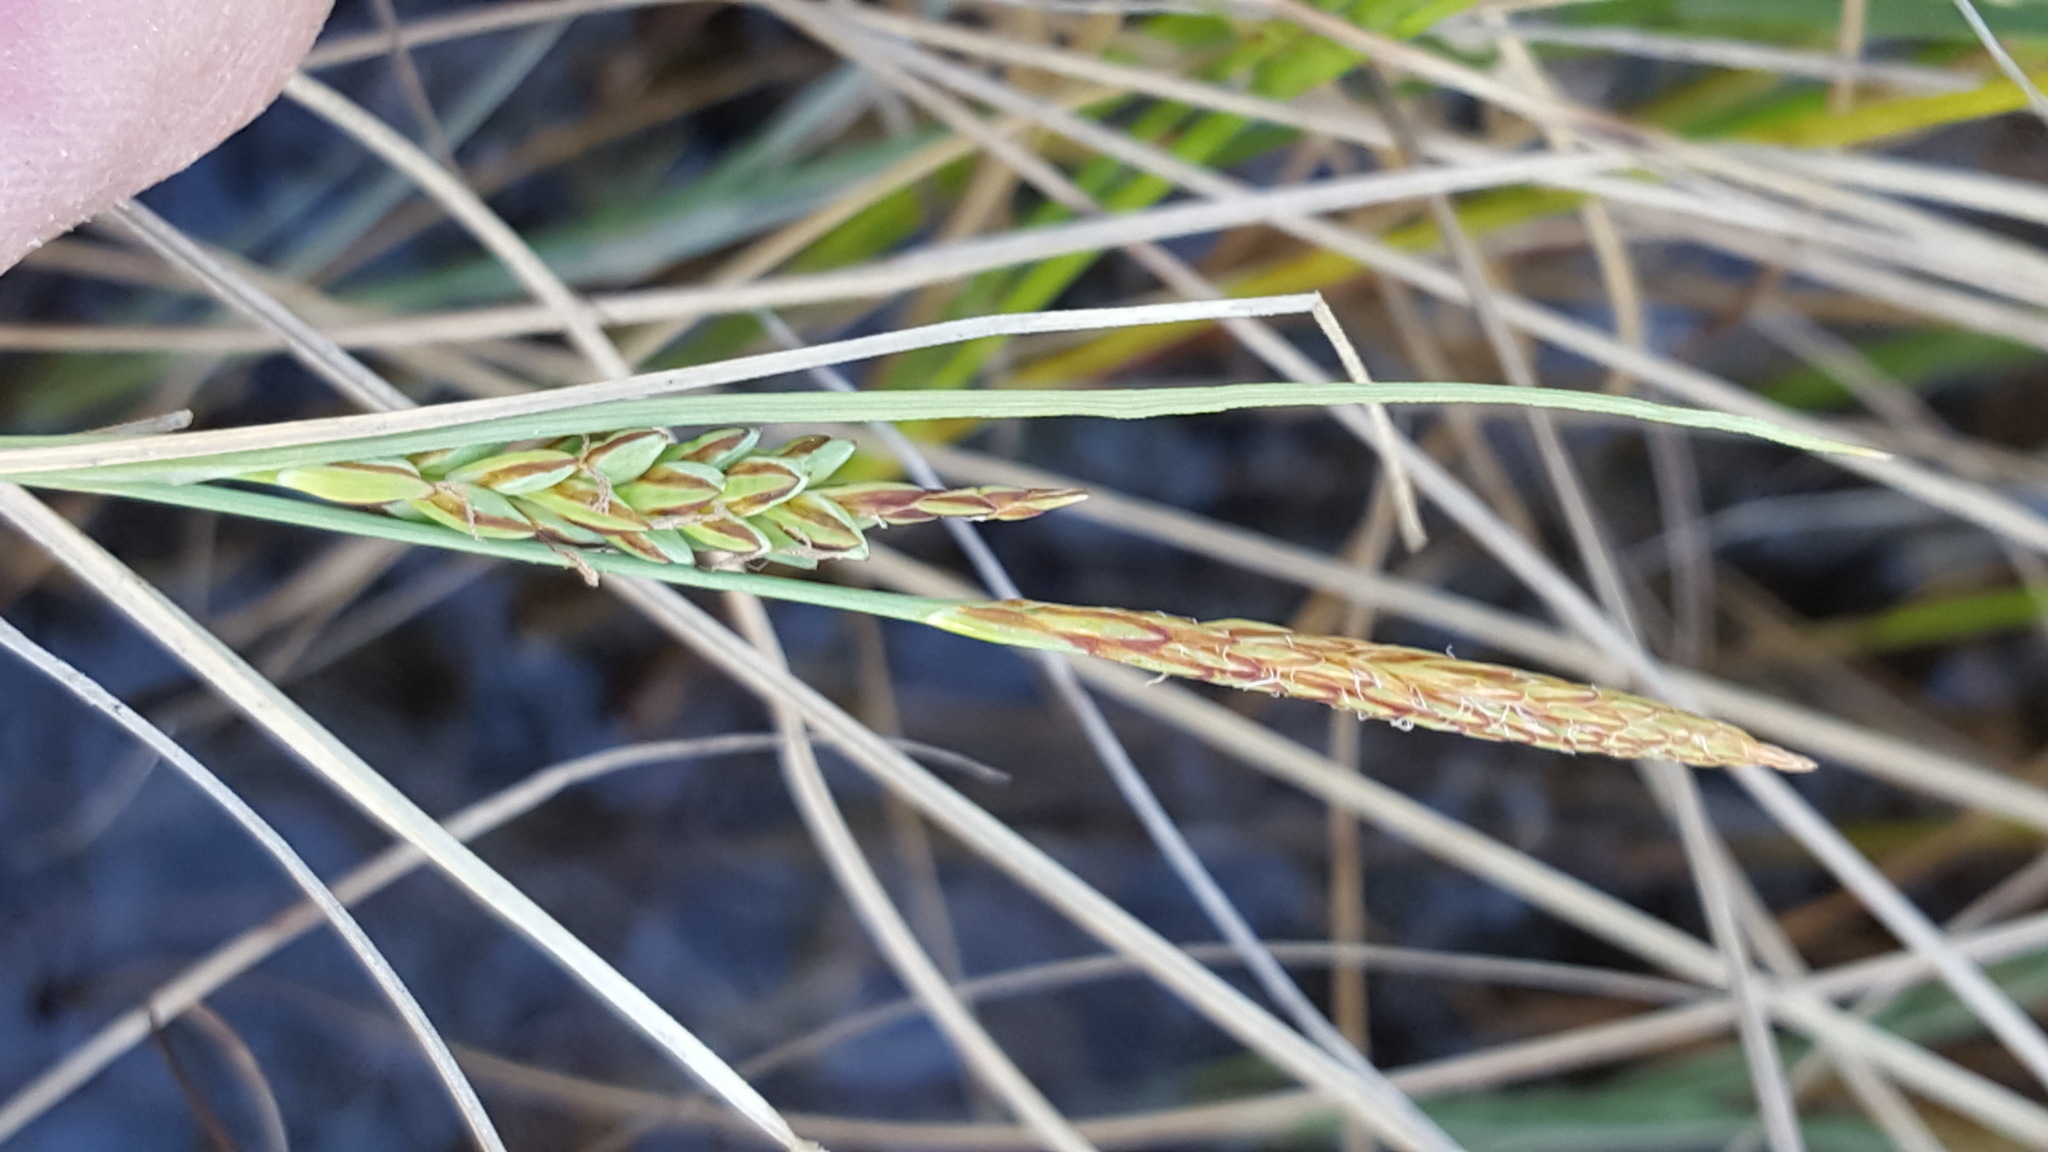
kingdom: Plantae
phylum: Tracheophyta
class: Liliopsida
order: Poales
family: Cyperaceae
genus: Carex
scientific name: Carex livida
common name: Livid sedge
